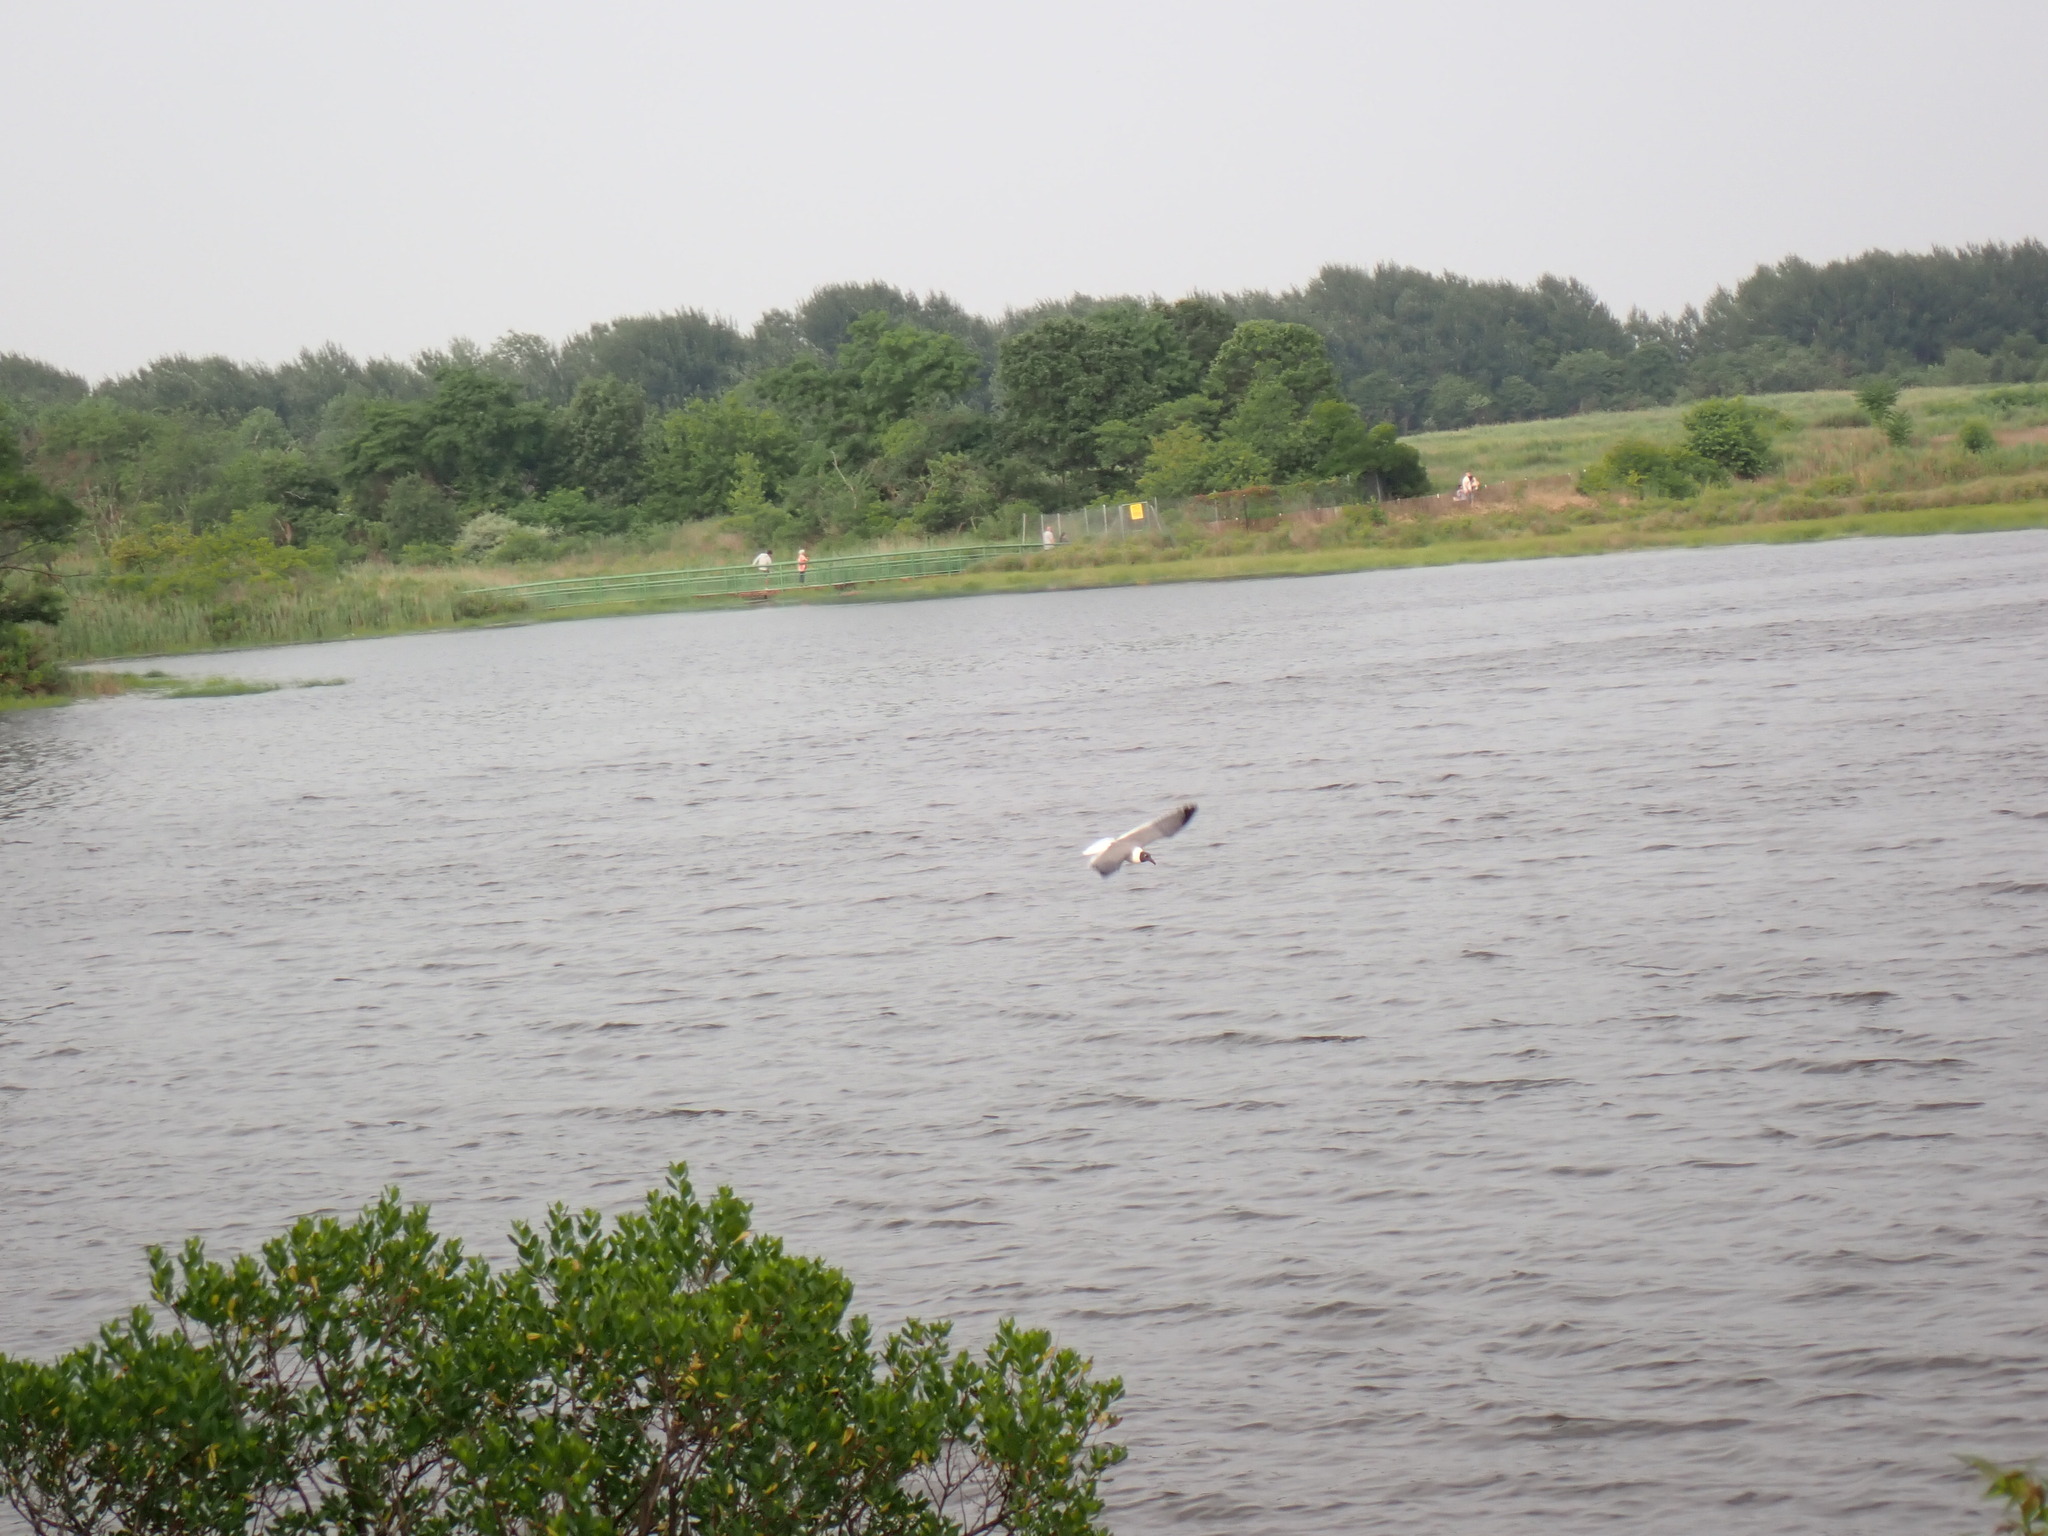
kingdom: Animalia
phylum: Chordata
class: Aves
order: Charadriiformes
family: Laridae
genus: Leucophaeus
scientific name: Leucophaeus atricilla
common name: Laughing gull
